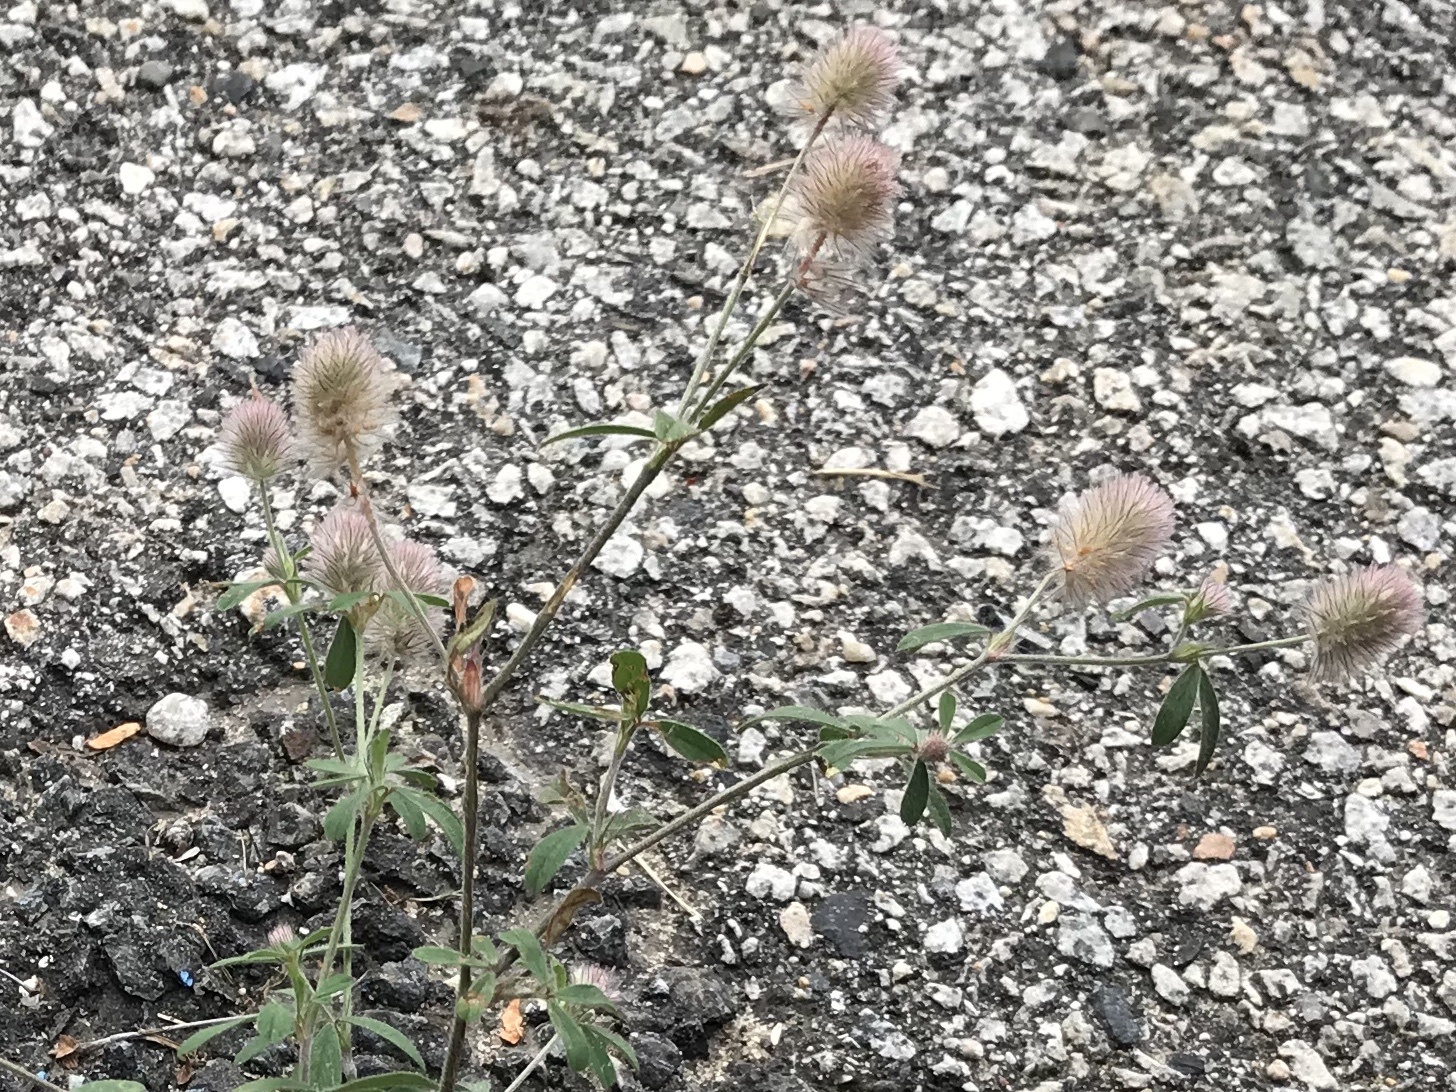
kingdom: Plantae
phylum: Tracheophyta
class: Magnoliopsida
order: Fabales
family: Fabaceae
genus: Trifolium
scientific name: Trifolium arvense
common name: Hare's-foot clover
